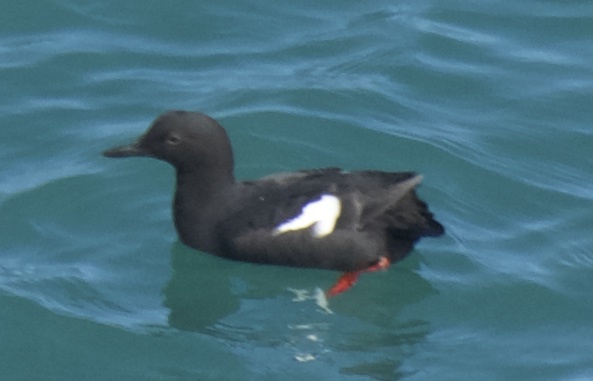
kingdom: Animalia
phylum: Chordata
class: Aves
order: Charadriiformes
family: Alcidae
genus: Cepphus
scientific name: Cepphus columba
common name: Pigeon guillemot
